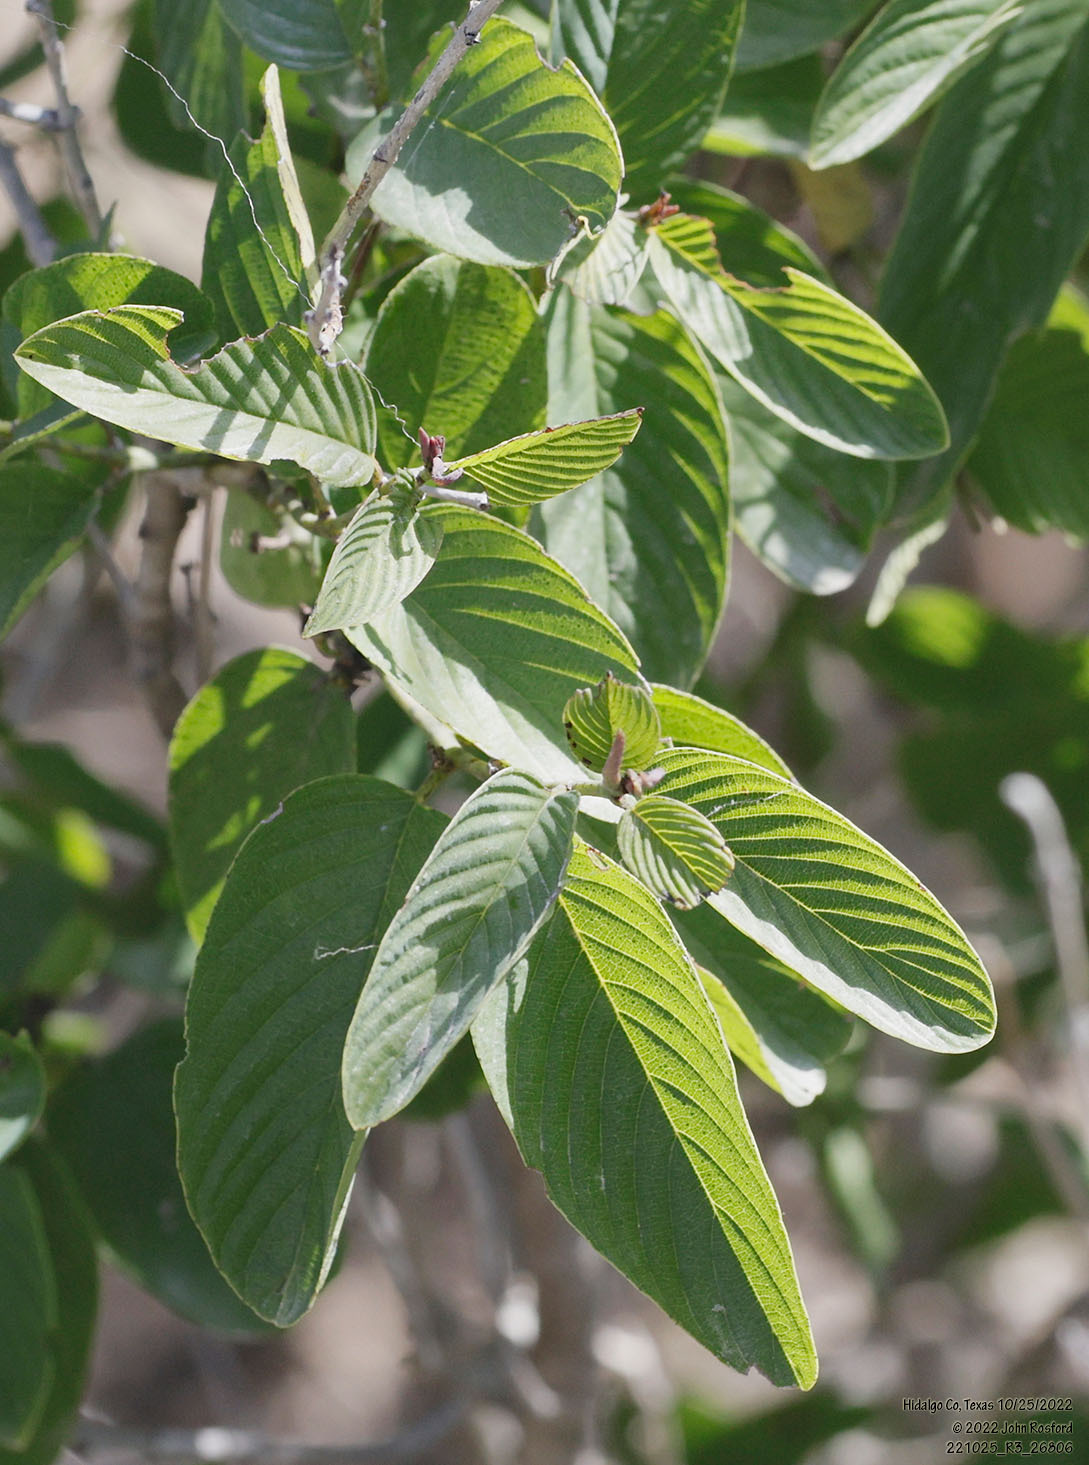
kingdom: Plantae
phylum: Tracheophyta
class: Magnoliopsida
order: Rosales
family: Rhamnaceae
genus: Karwinskia
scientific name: Karwinskia humboldtiana
